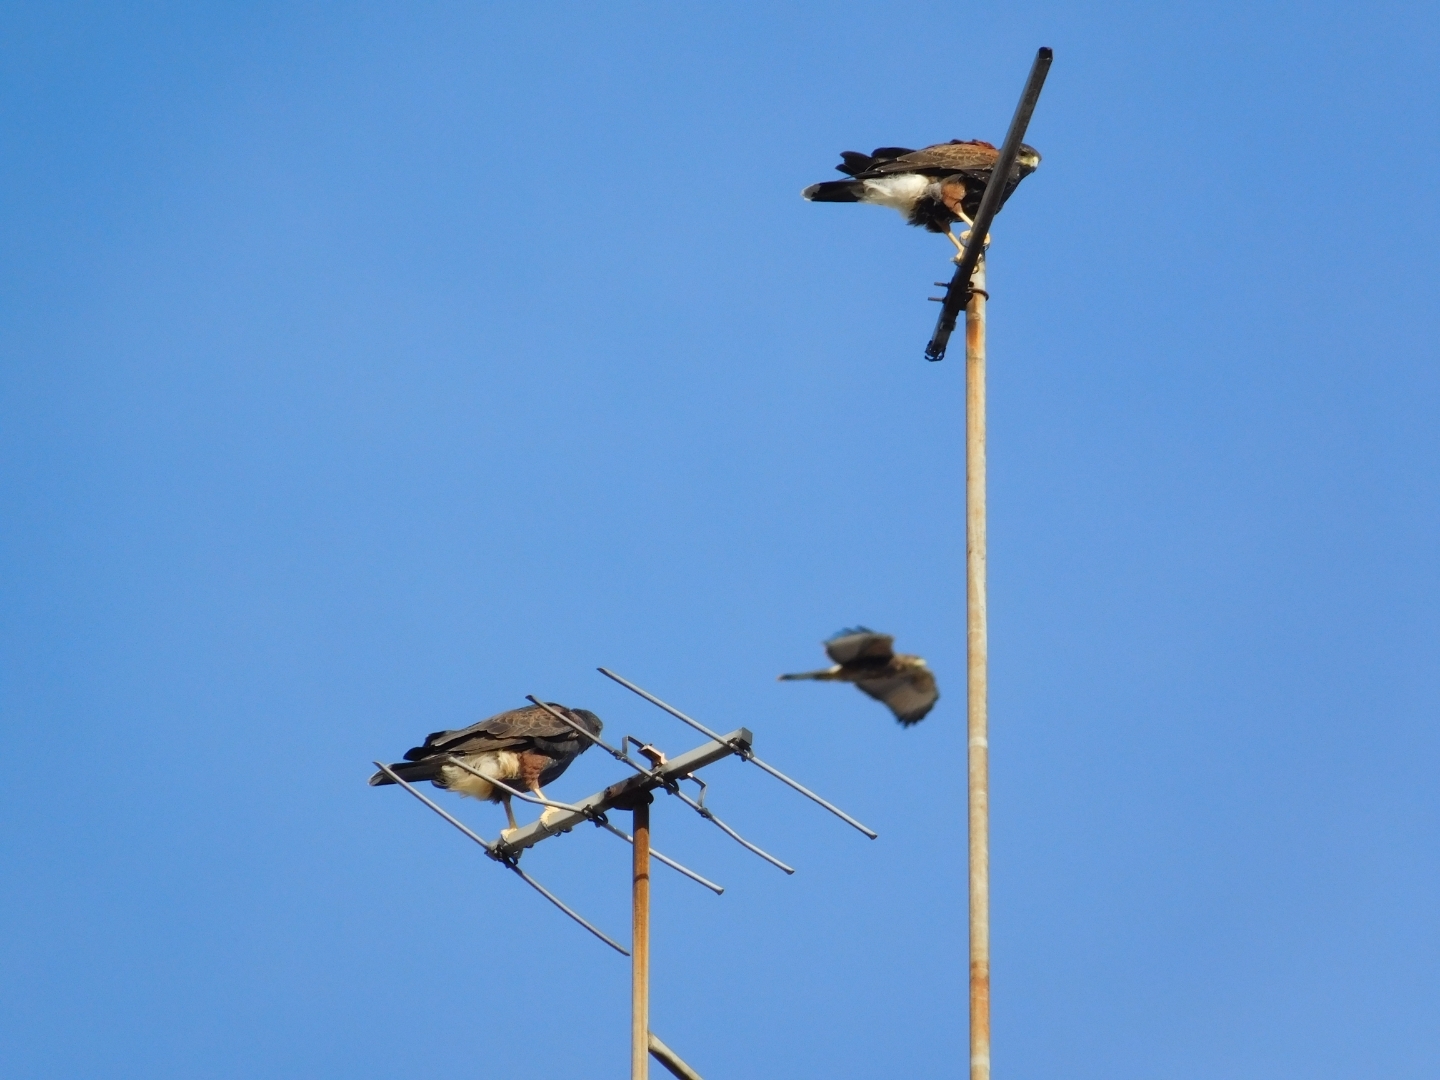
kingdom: Animalia
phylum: Chordata
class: Aves
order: Accipitriformes
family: Accipitridae
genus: Parabuteo
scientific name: Parabuteo unicinctus
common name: Harris's hawk
